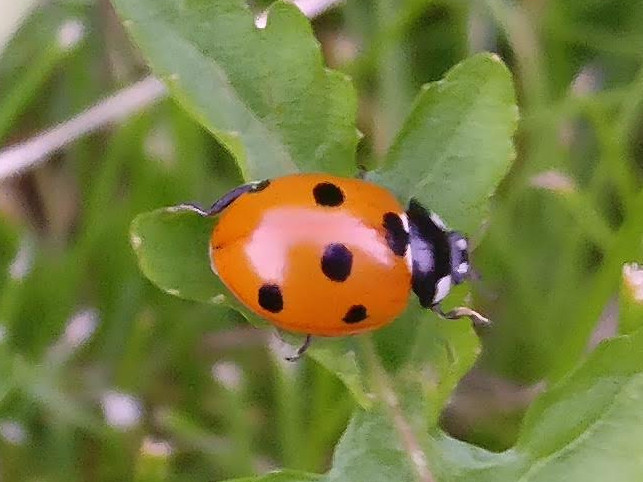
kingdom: Animalia
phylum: Arthropoda
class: Insecta
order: Coleoptera
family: Coccinellidae
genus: Coccinella
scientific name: Coccinella septempunctata
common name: Sevenspotted lady beetle
